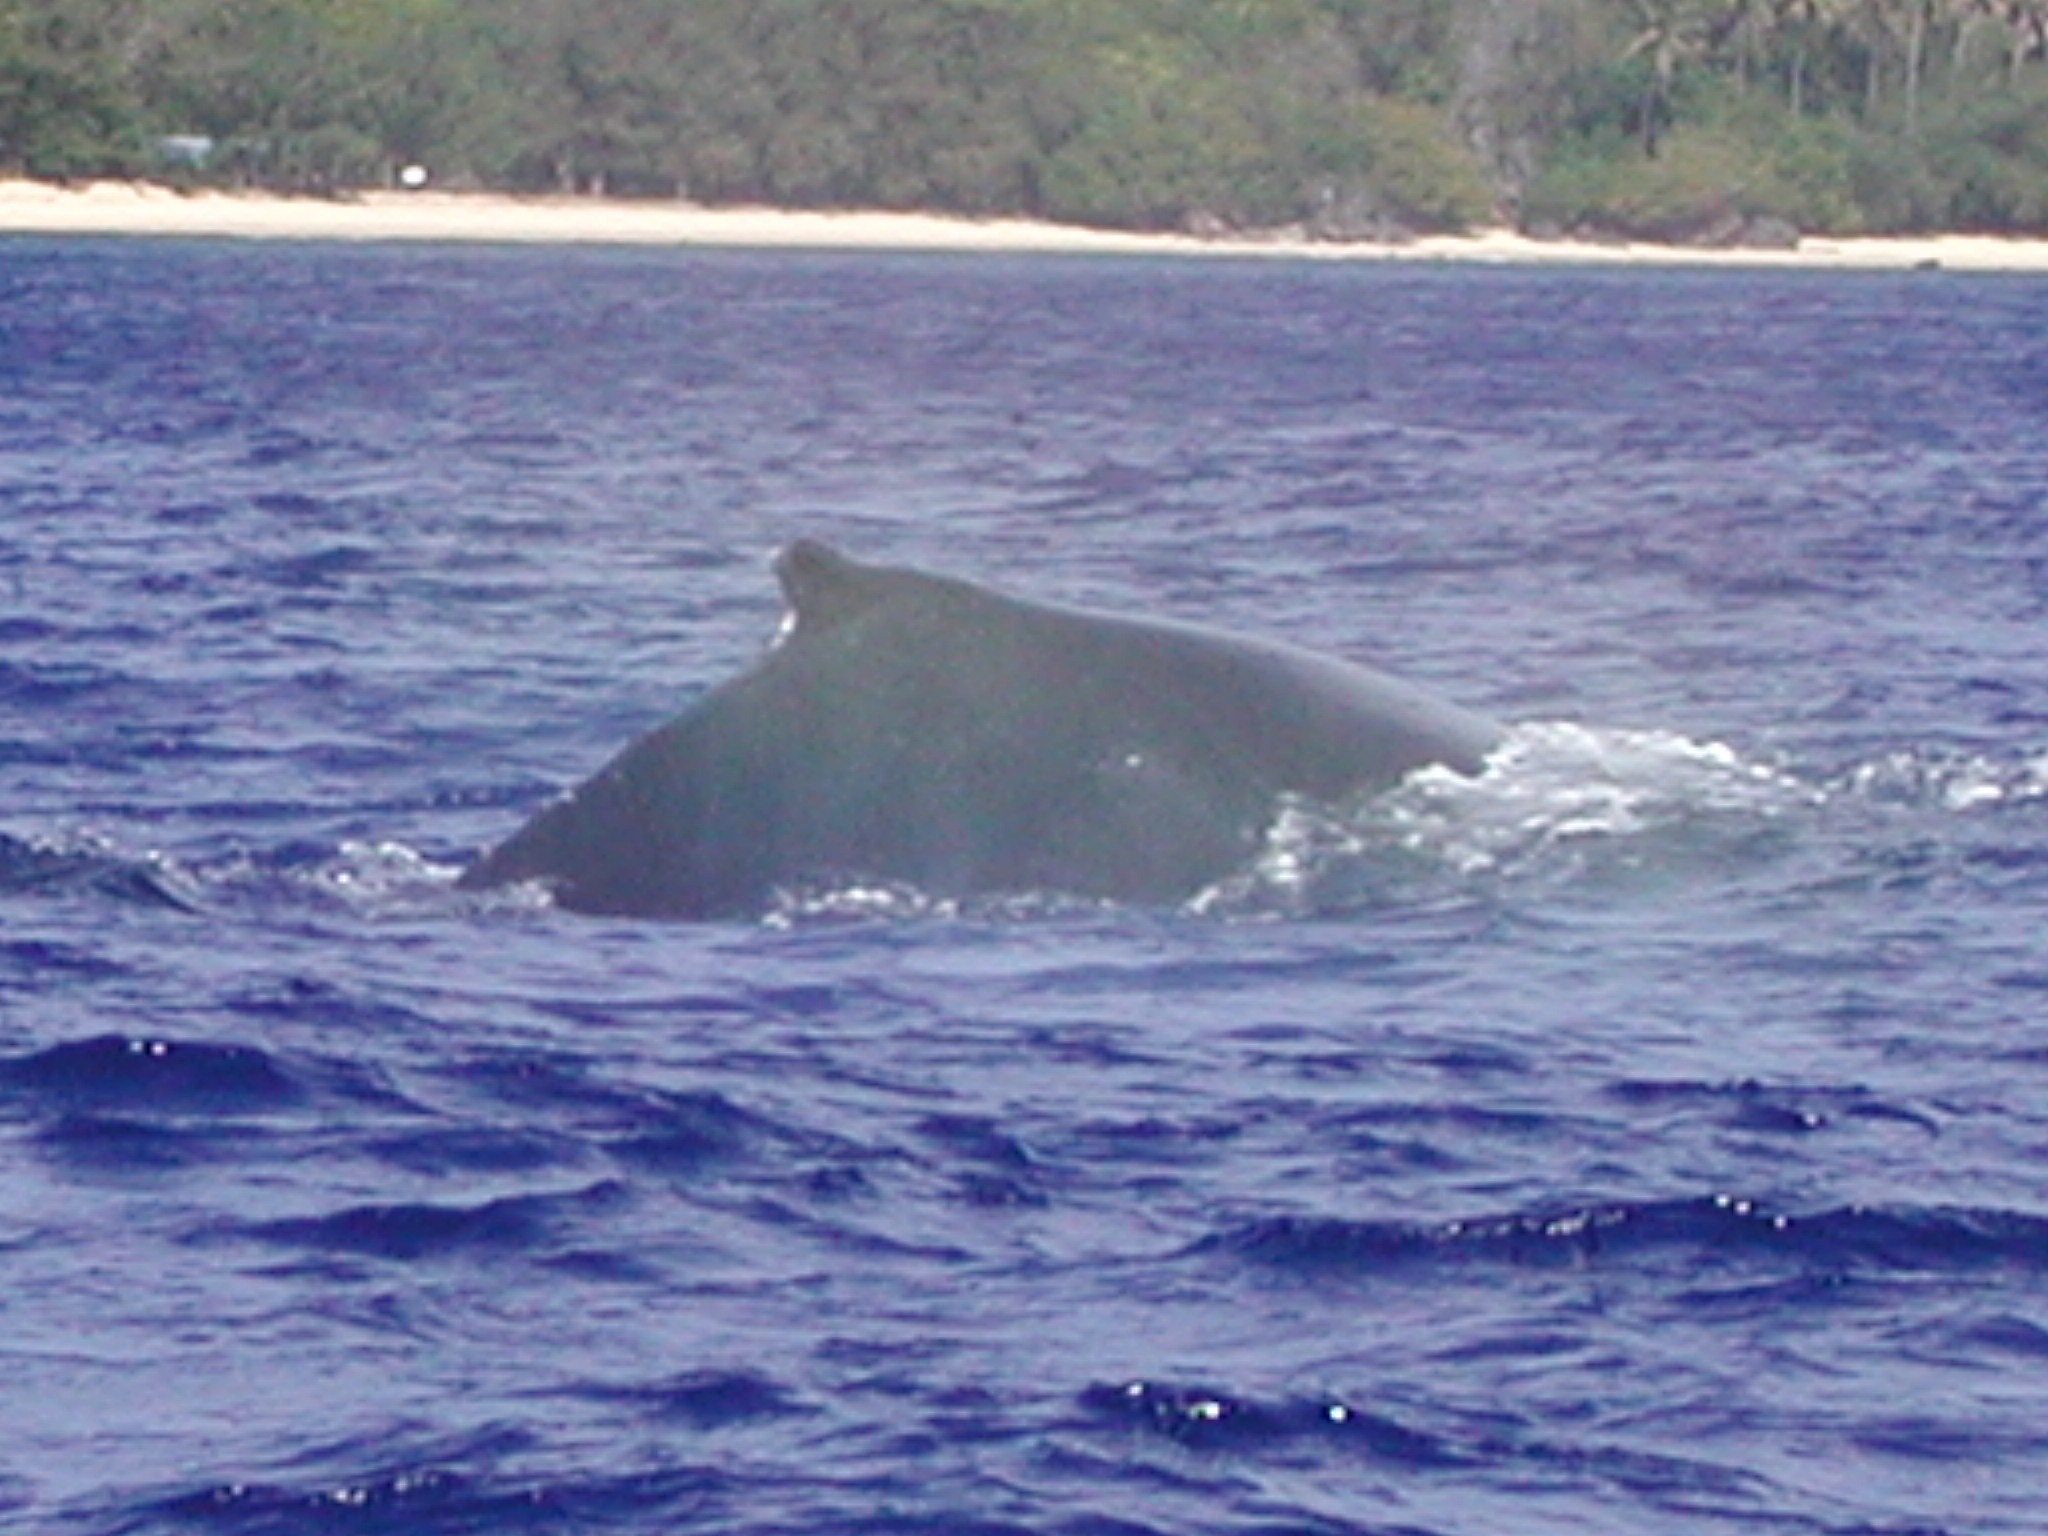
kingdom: Animalia
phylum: Chordata
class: Mammalia
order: Cetacea
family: Balaenopteridae
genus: Megaptera
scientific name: Megaptera novaeangliae
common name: Humpback whale
